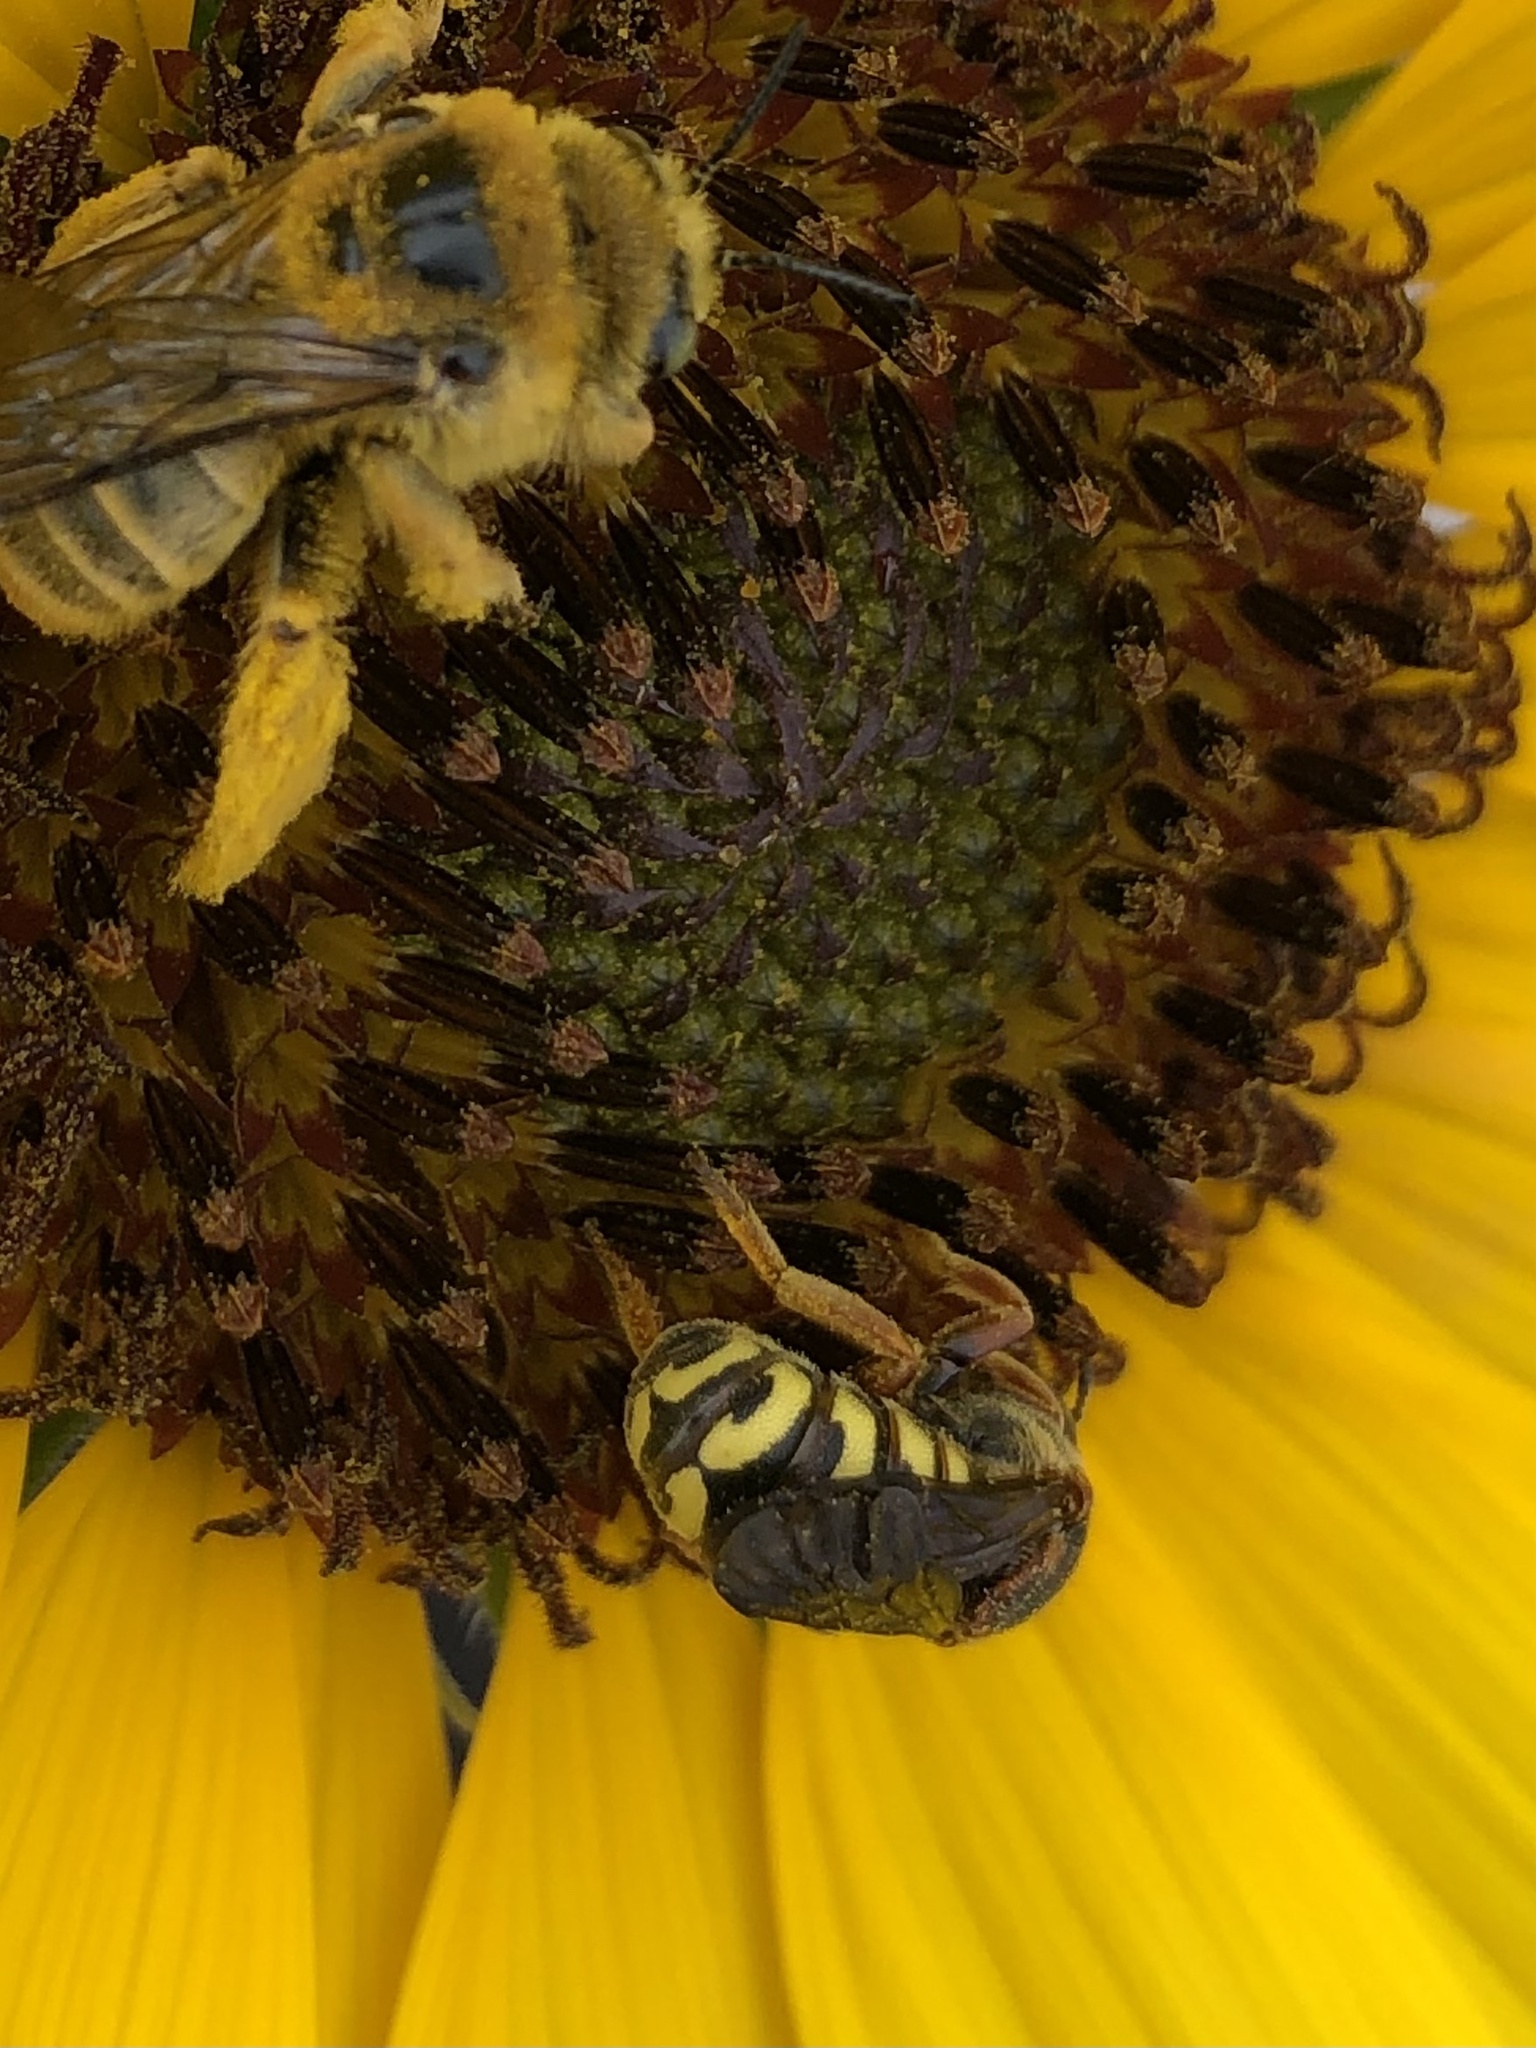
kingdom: Animalia
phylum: Arthropoda
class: Insecta
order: Hymenoptera
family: Megachilidae
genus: Dianthidium
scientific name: Dianthidium curvatum
